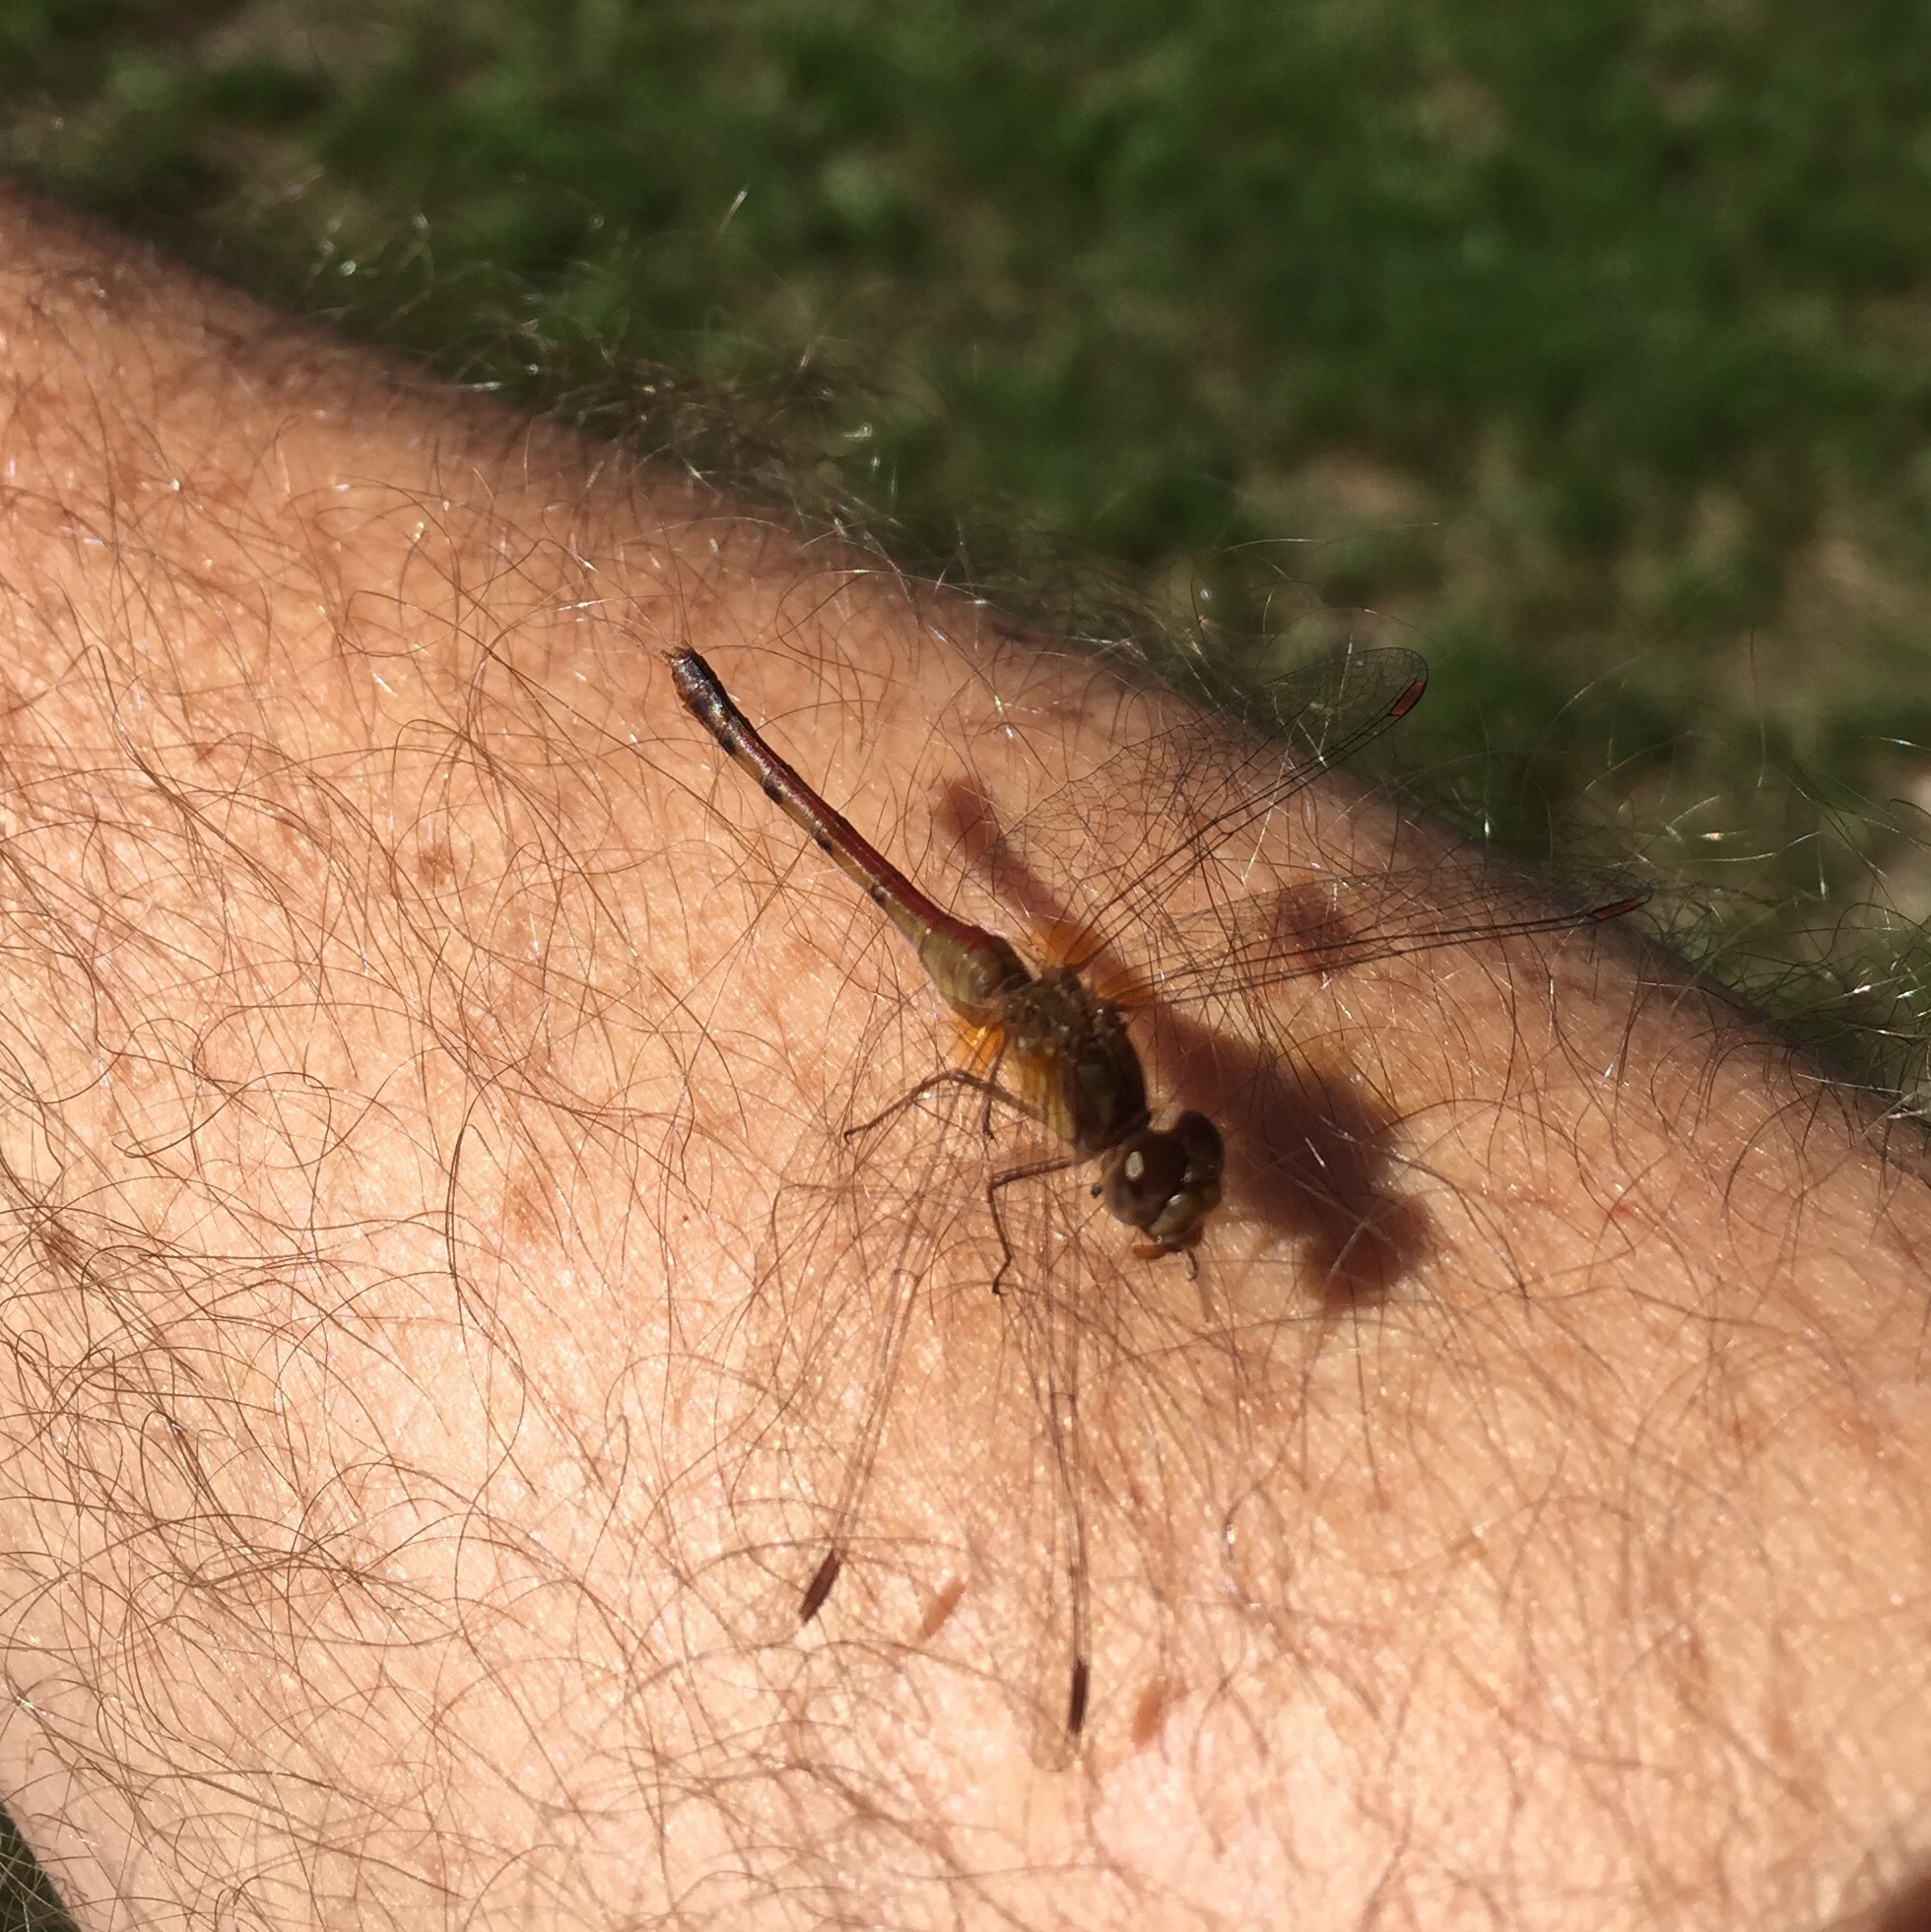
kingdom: Animalia
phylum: Arthropoda
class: Insecta
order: Odonata
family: Libellulidae
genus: Sympetrum
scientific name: Sympetrum vicinum
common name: Autumn meadowhawk
